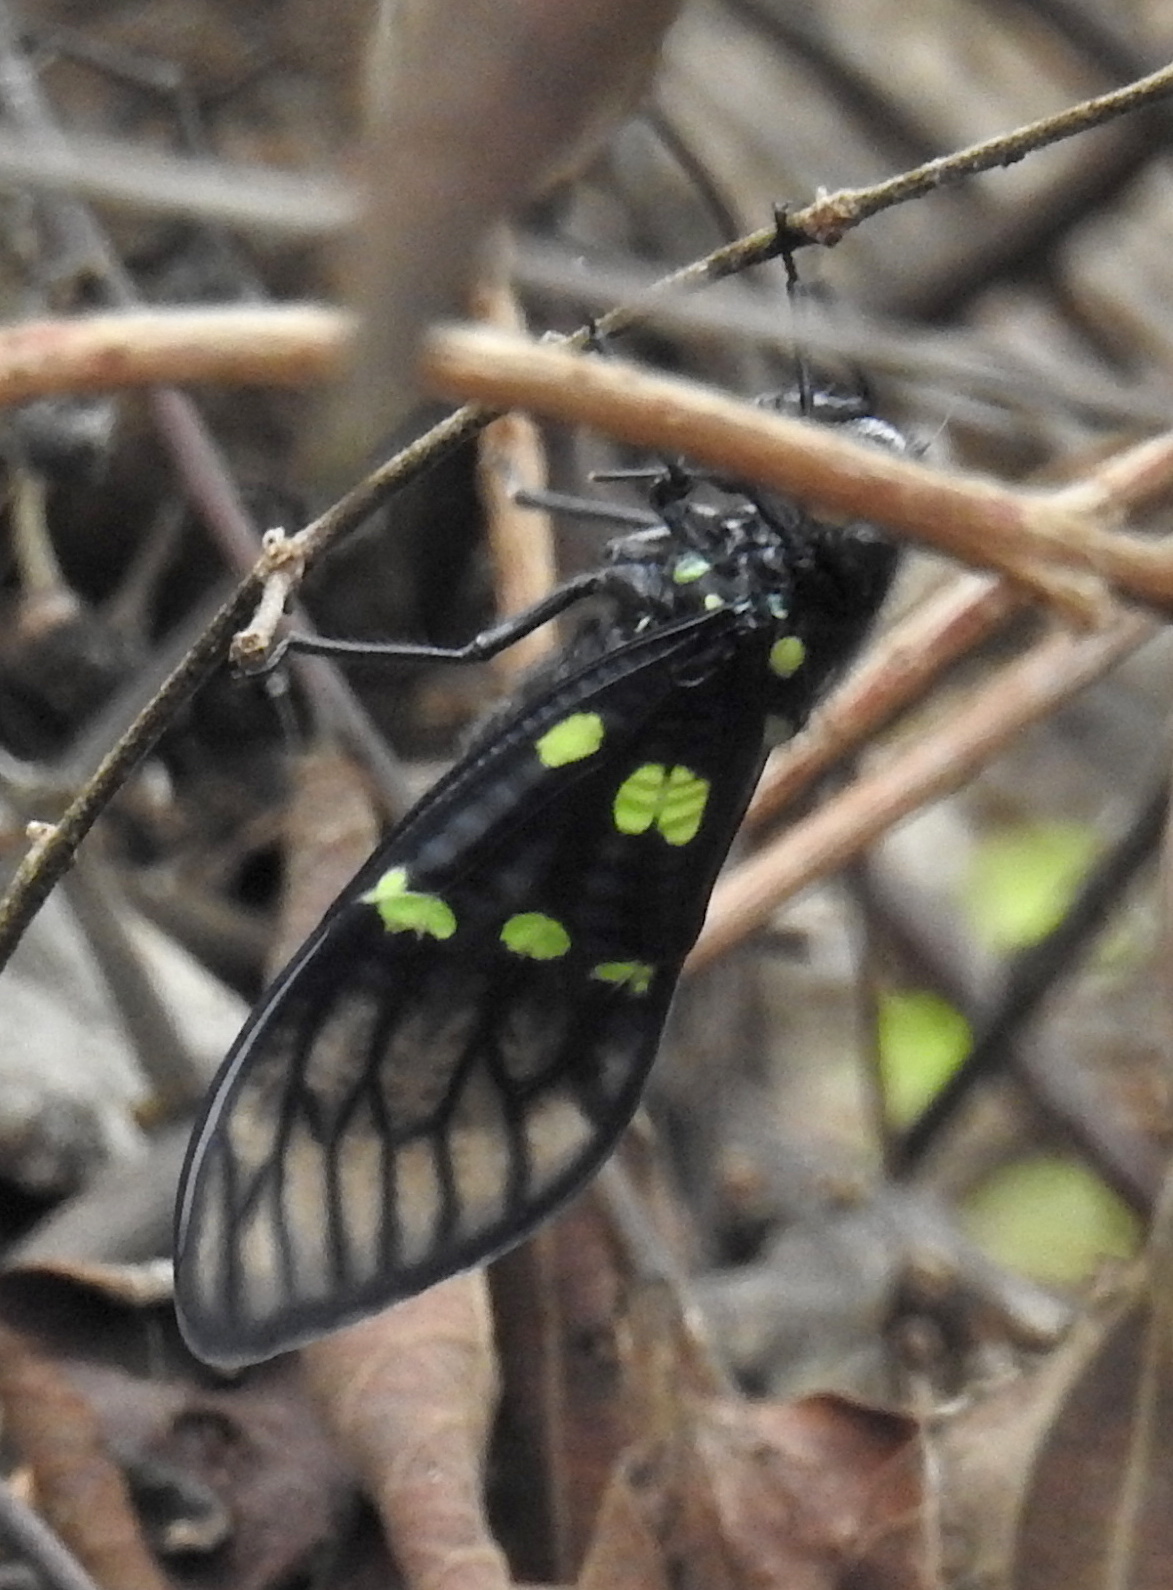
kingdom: Animalia
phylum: Arthropoda
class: Insecta
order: Hemiptera
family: Cicadidae
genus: Gaeana
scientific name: Gaeana cheni
